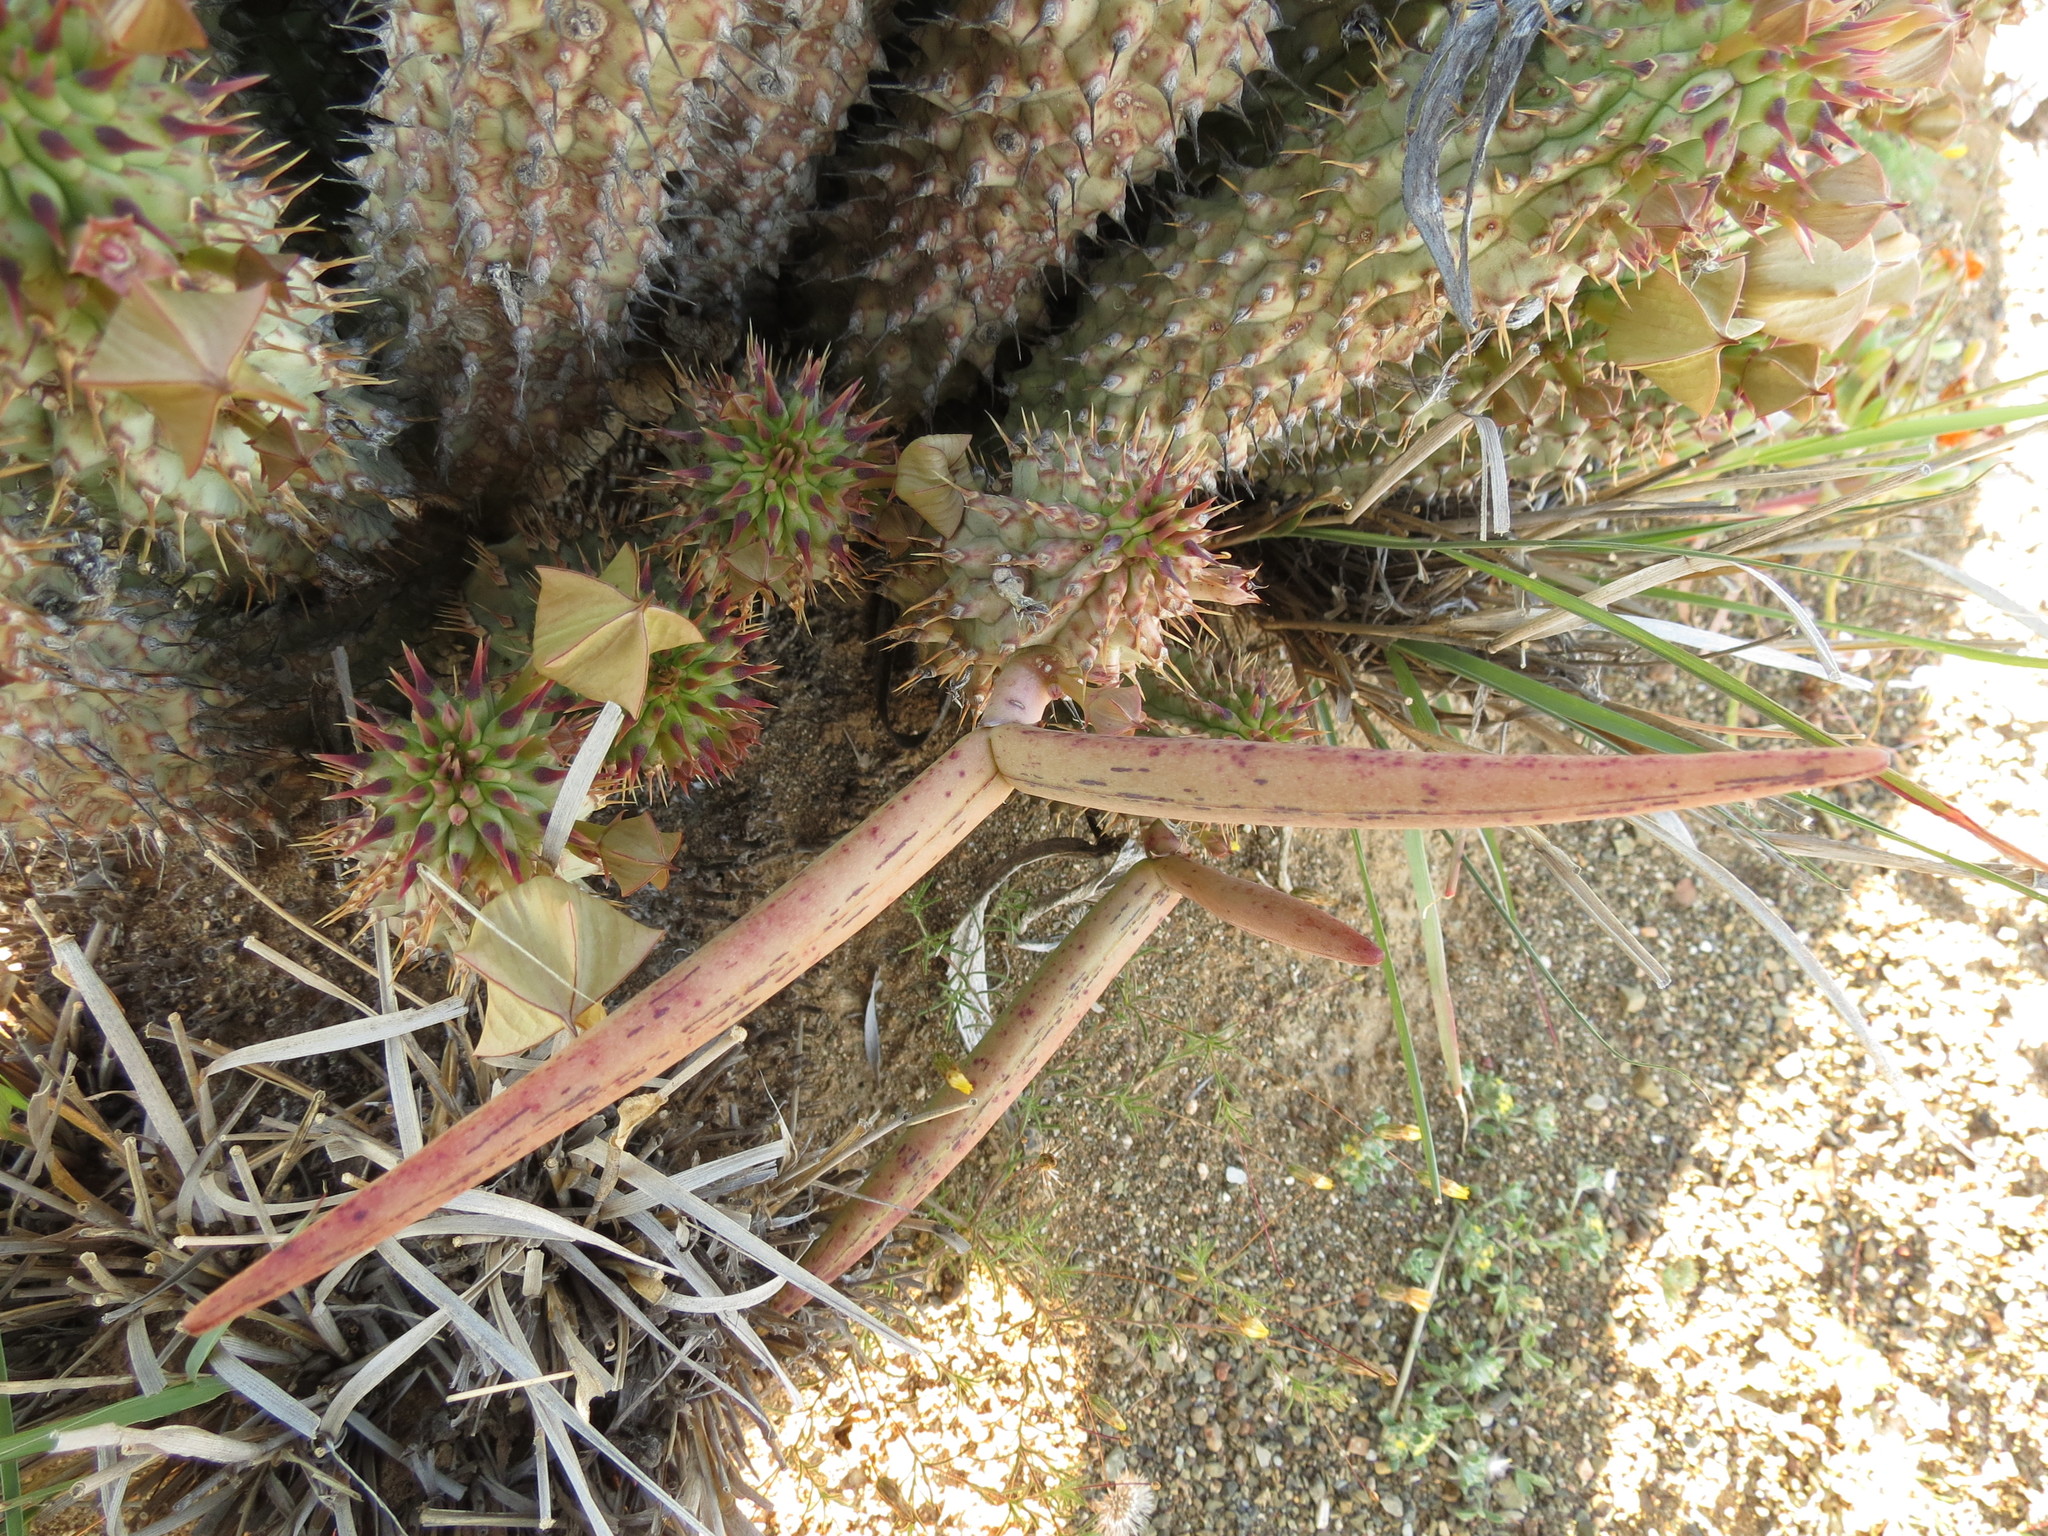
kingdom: Plantae
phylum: Tracheophyta
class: Magnoliopsida
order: Gentianales
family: Apocynaceae
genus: Hoodia
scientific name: Hoodia gordonii
